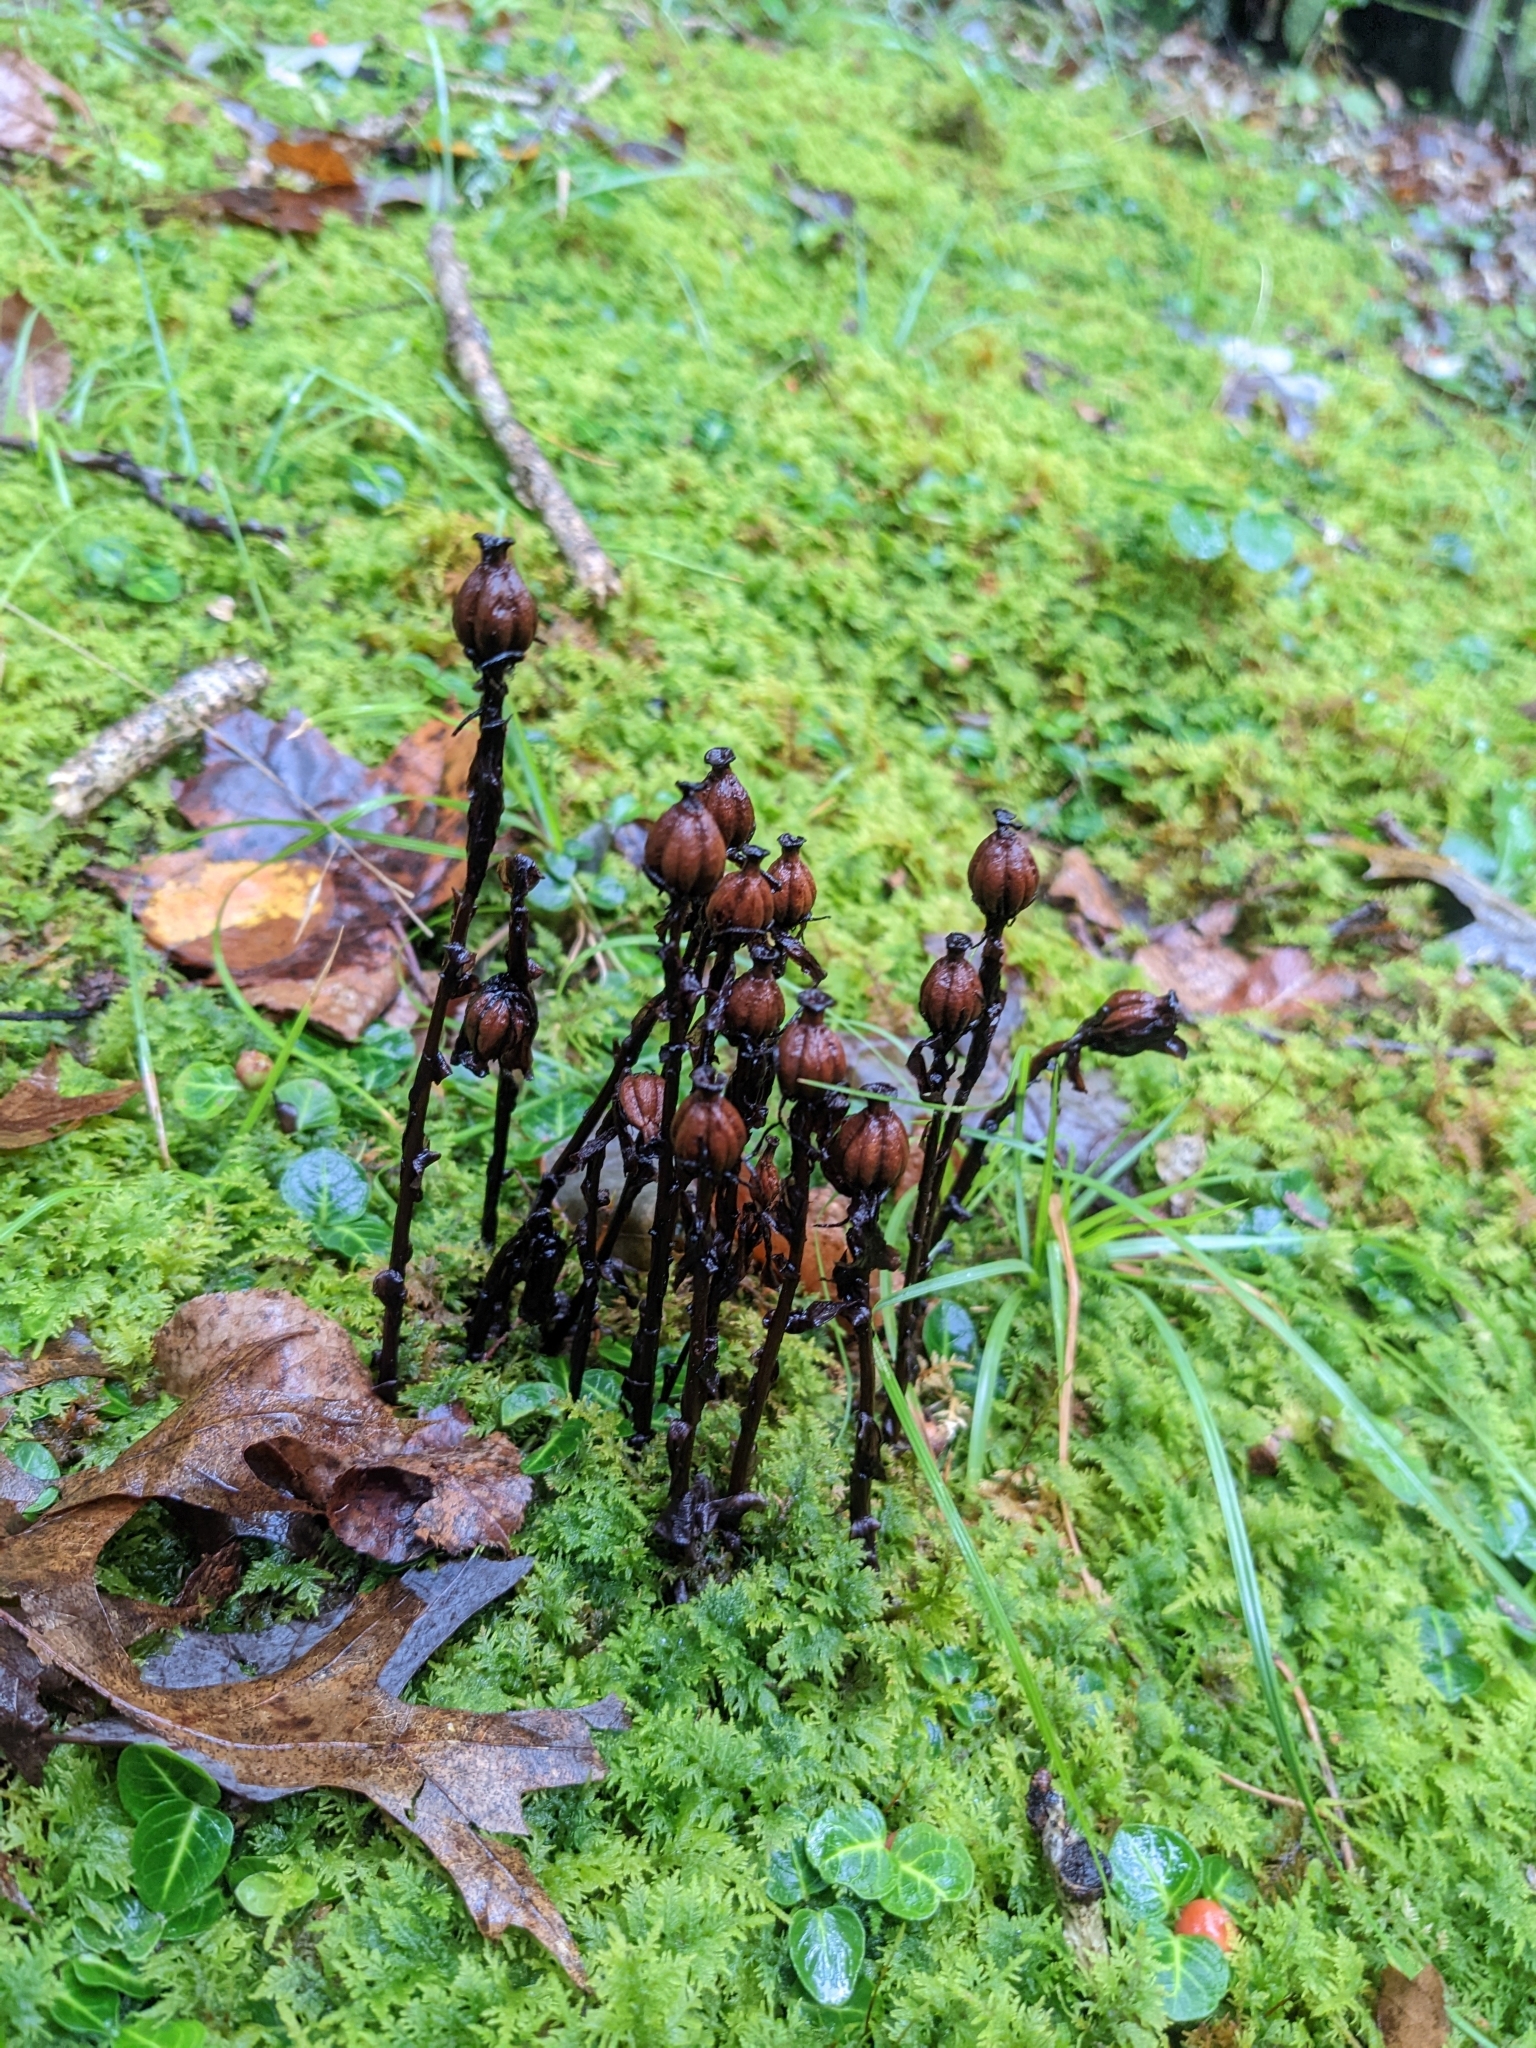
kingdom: Plantae
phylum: Tracheophyta
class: Magnoliopsida
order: Ericales
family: Ericaceae
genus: Monotropa
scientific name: Monotropa uniflora
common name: Convulsion root
